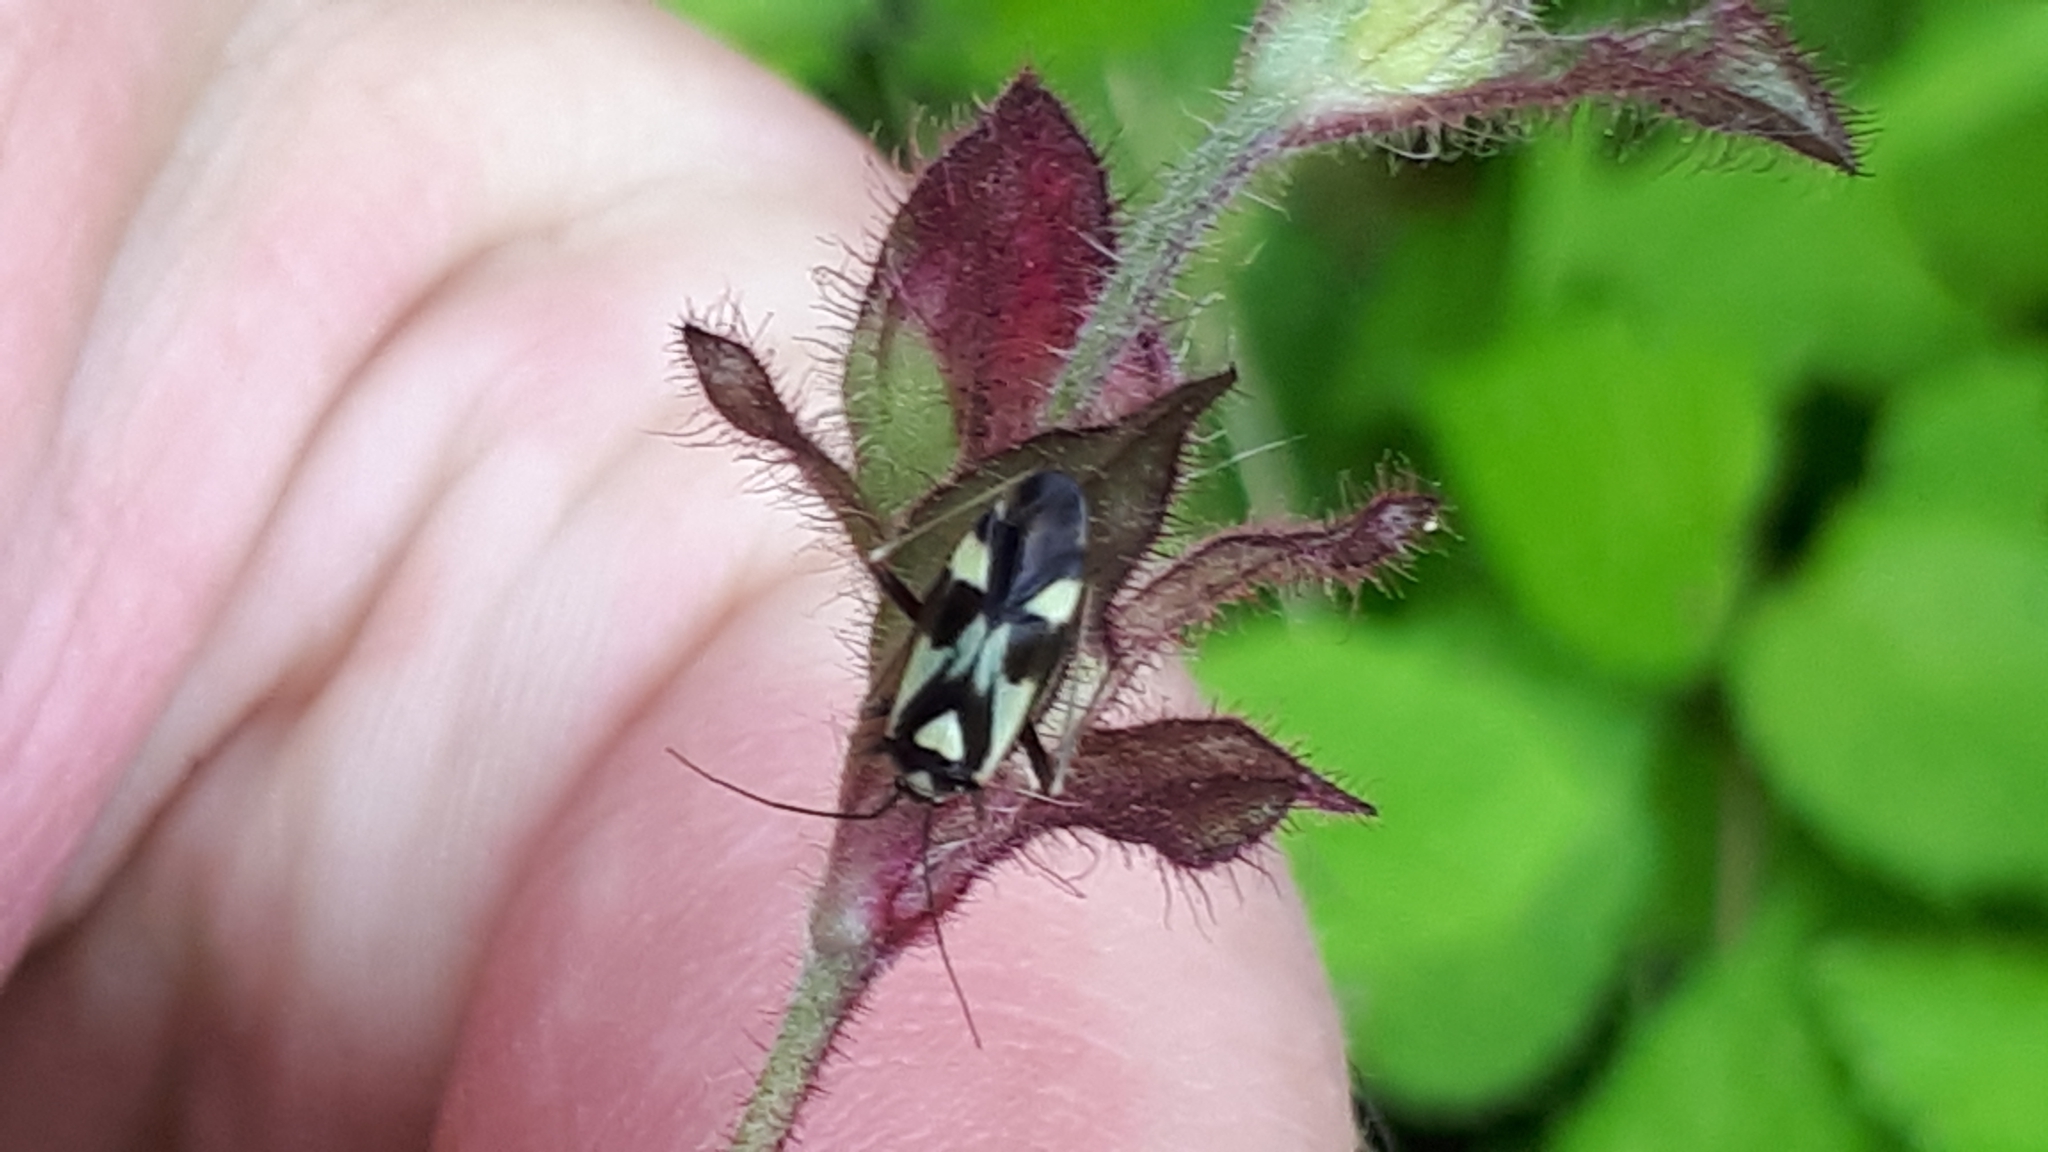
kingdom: Animalia
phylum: Arthropoda
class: Insecta
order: Hemiptera
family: Miridae
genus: Grypocoris
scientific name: Grypocoris sexguttatus
